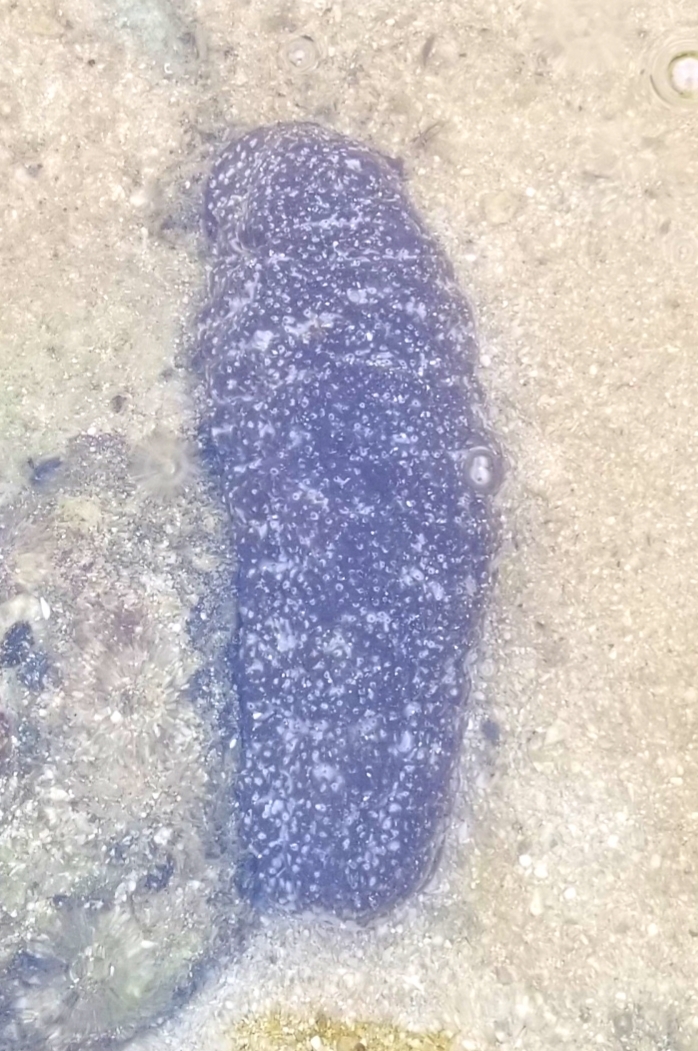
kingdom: Animalia
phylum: Echinodermata
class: Holothuroidea
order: Holothuriida
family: Holothuriidae
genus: Actinopyga
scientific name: Actinopyga varians
